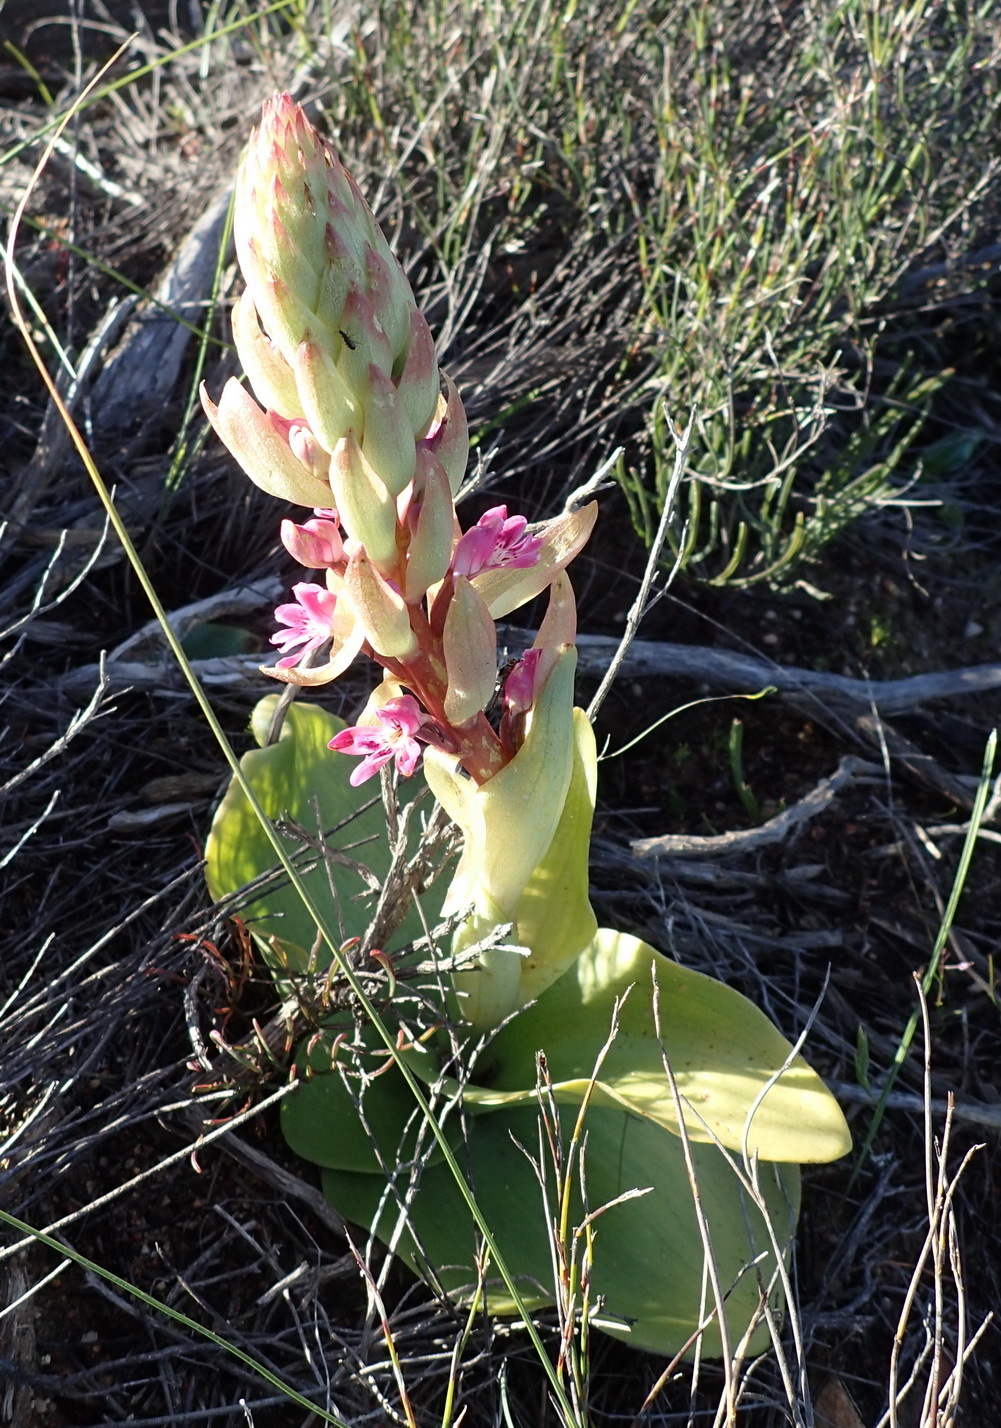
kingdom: Plantae
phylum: Tracheophyta
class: Liliopsida
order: Asparagales
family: Orchidaceae
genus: Satyrium
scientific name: Satyrium erectum
